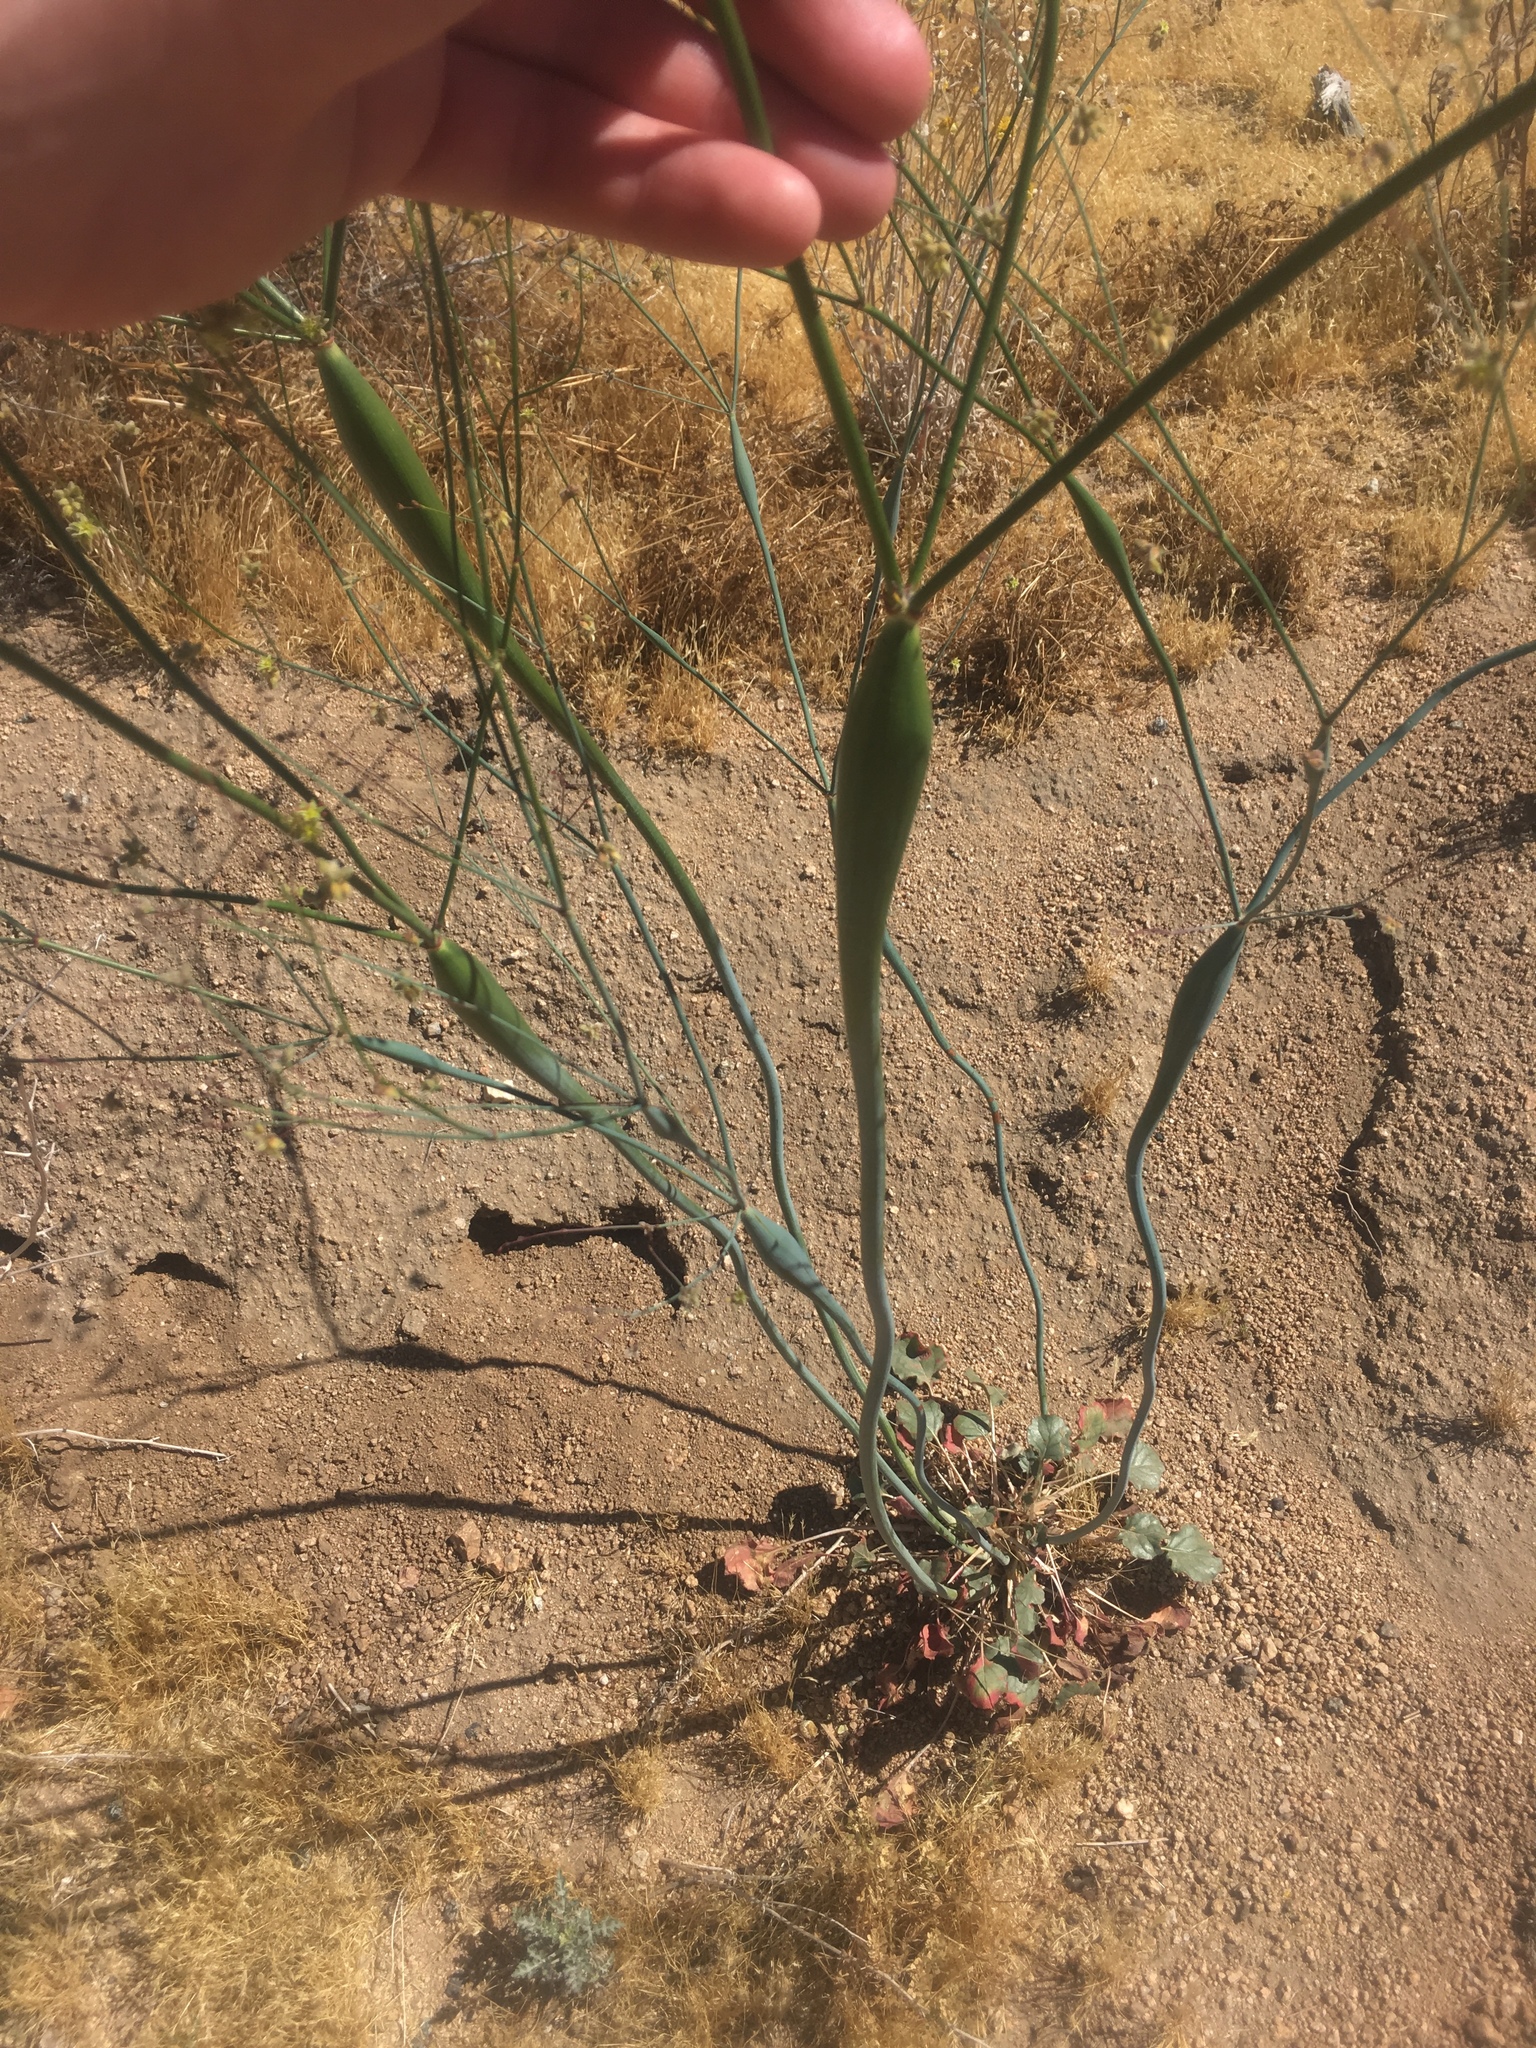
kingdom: Plantae
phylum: Tracheophyta
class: Magnoliopsida
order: Caryophyllales
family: Polygonaceae
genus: Eriogonum
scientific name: Eriogonum inflatum
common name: Desert trumpet
